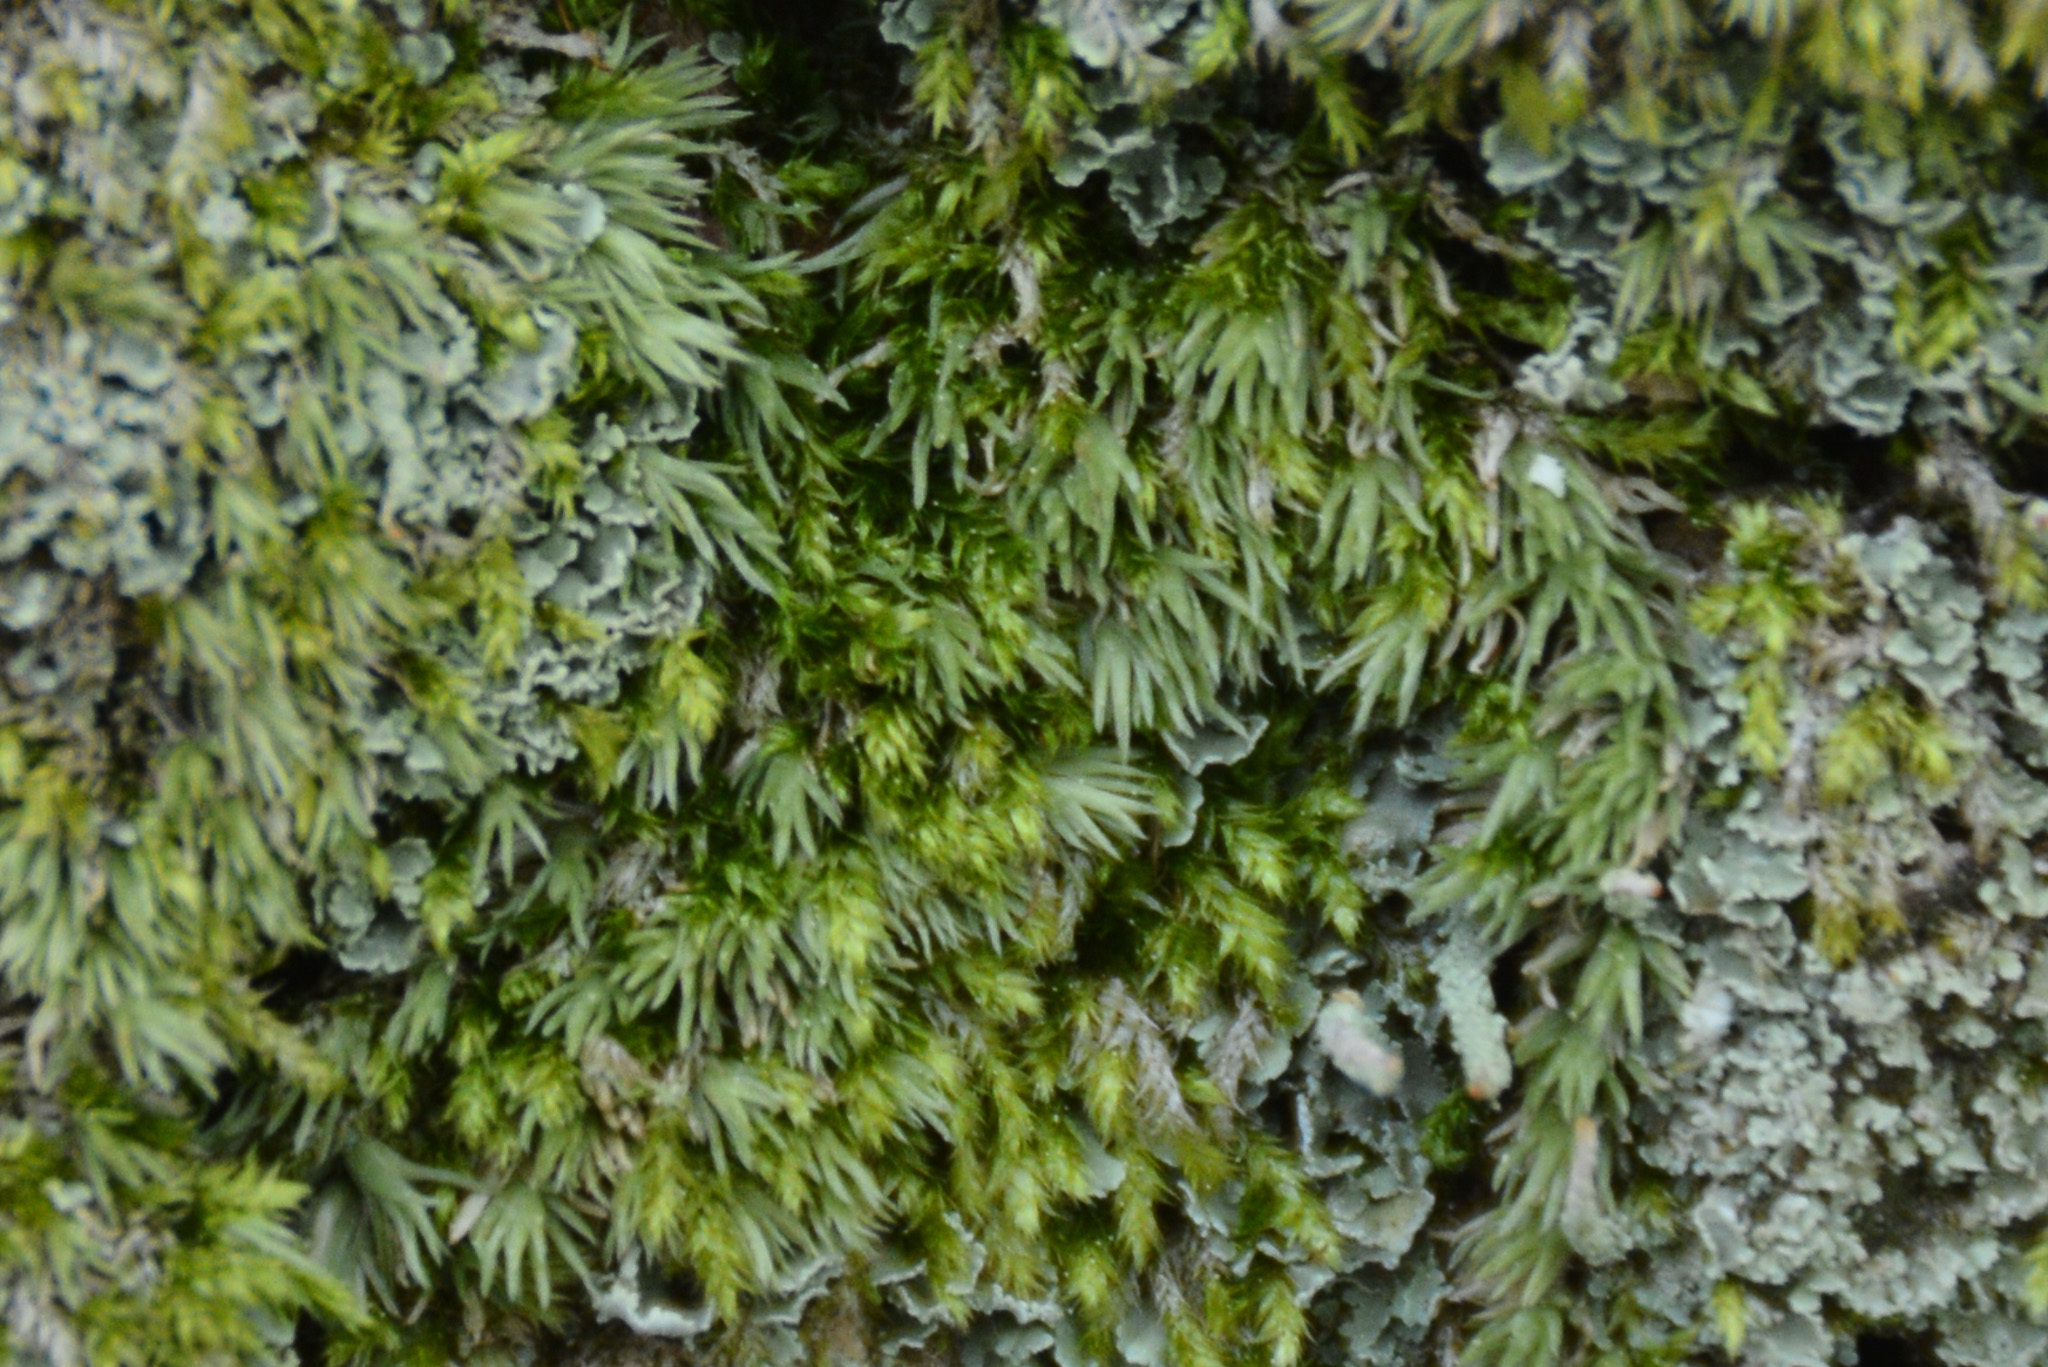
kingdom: Plantae
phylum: Bryophyta
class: Bryopsida
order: Dicranales
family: Leucobryaceae
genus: Leucobryum
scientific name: Leucobryum albidum
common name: White moss
